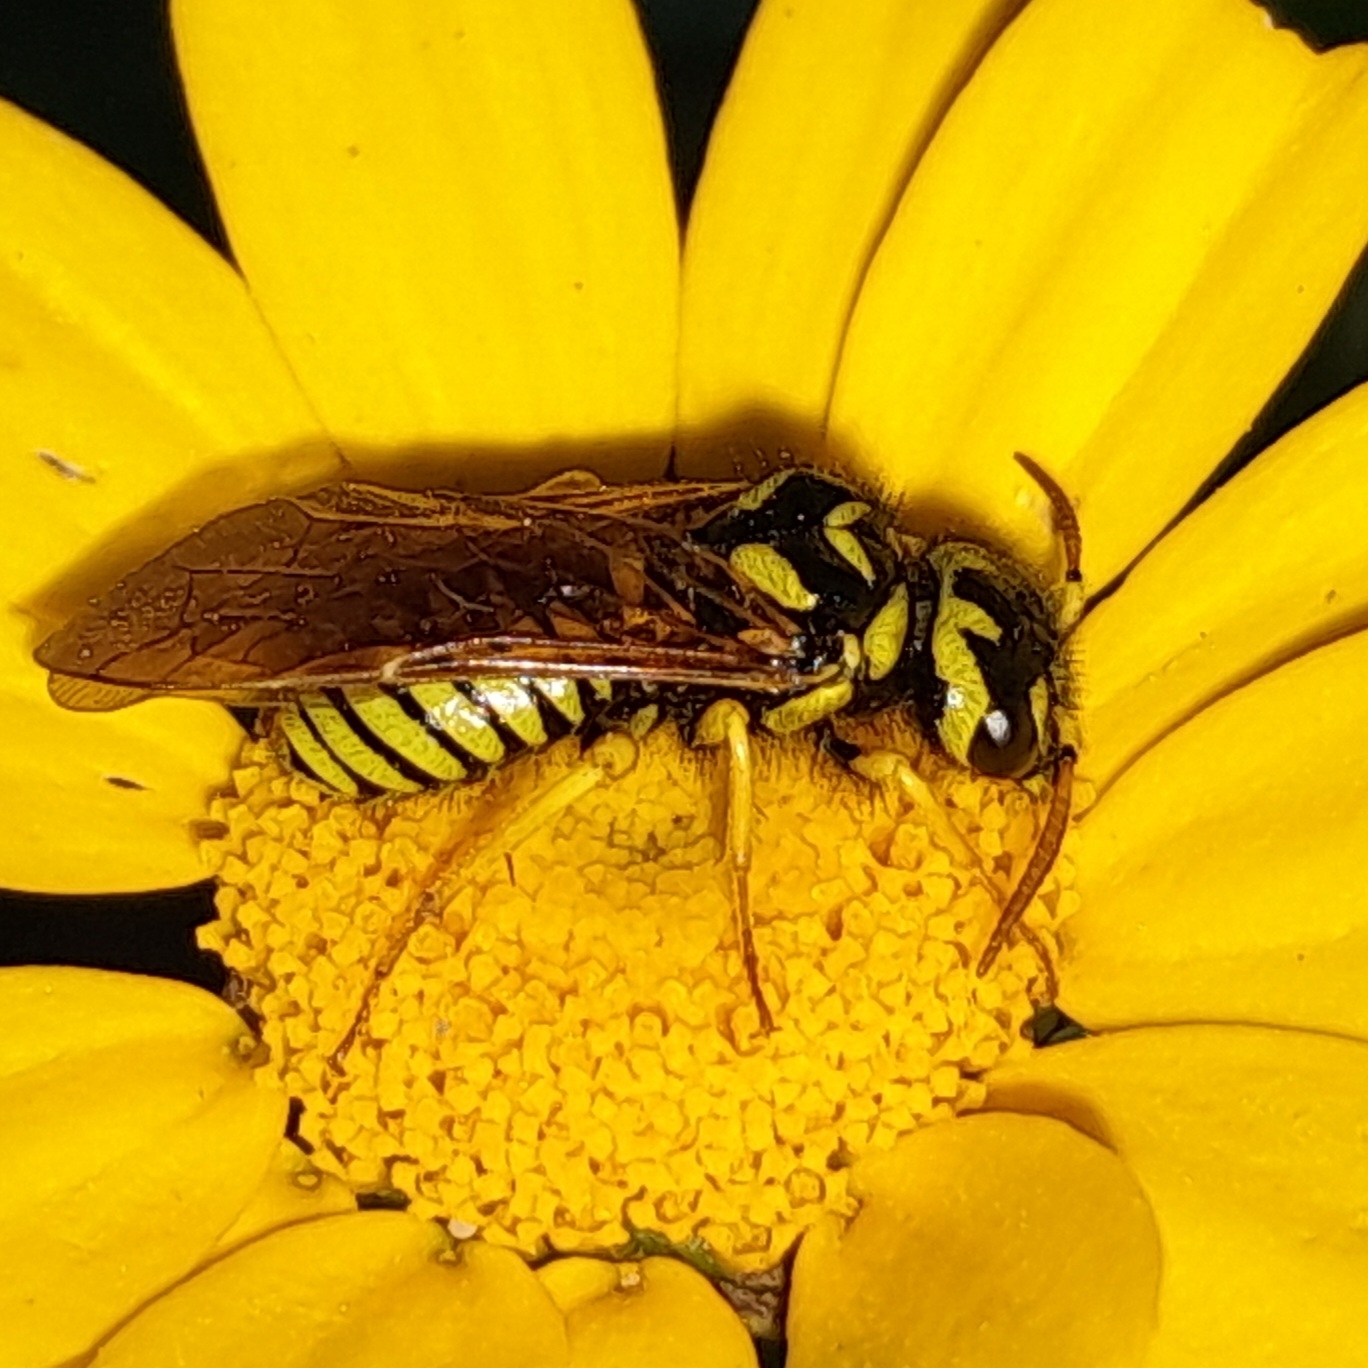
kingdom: Animalia
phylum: Arthropoda
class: Insecta
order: Hymenoptera
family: Megalodontesidae
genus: Megalodontes
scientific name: Megalodontes capitalatus
